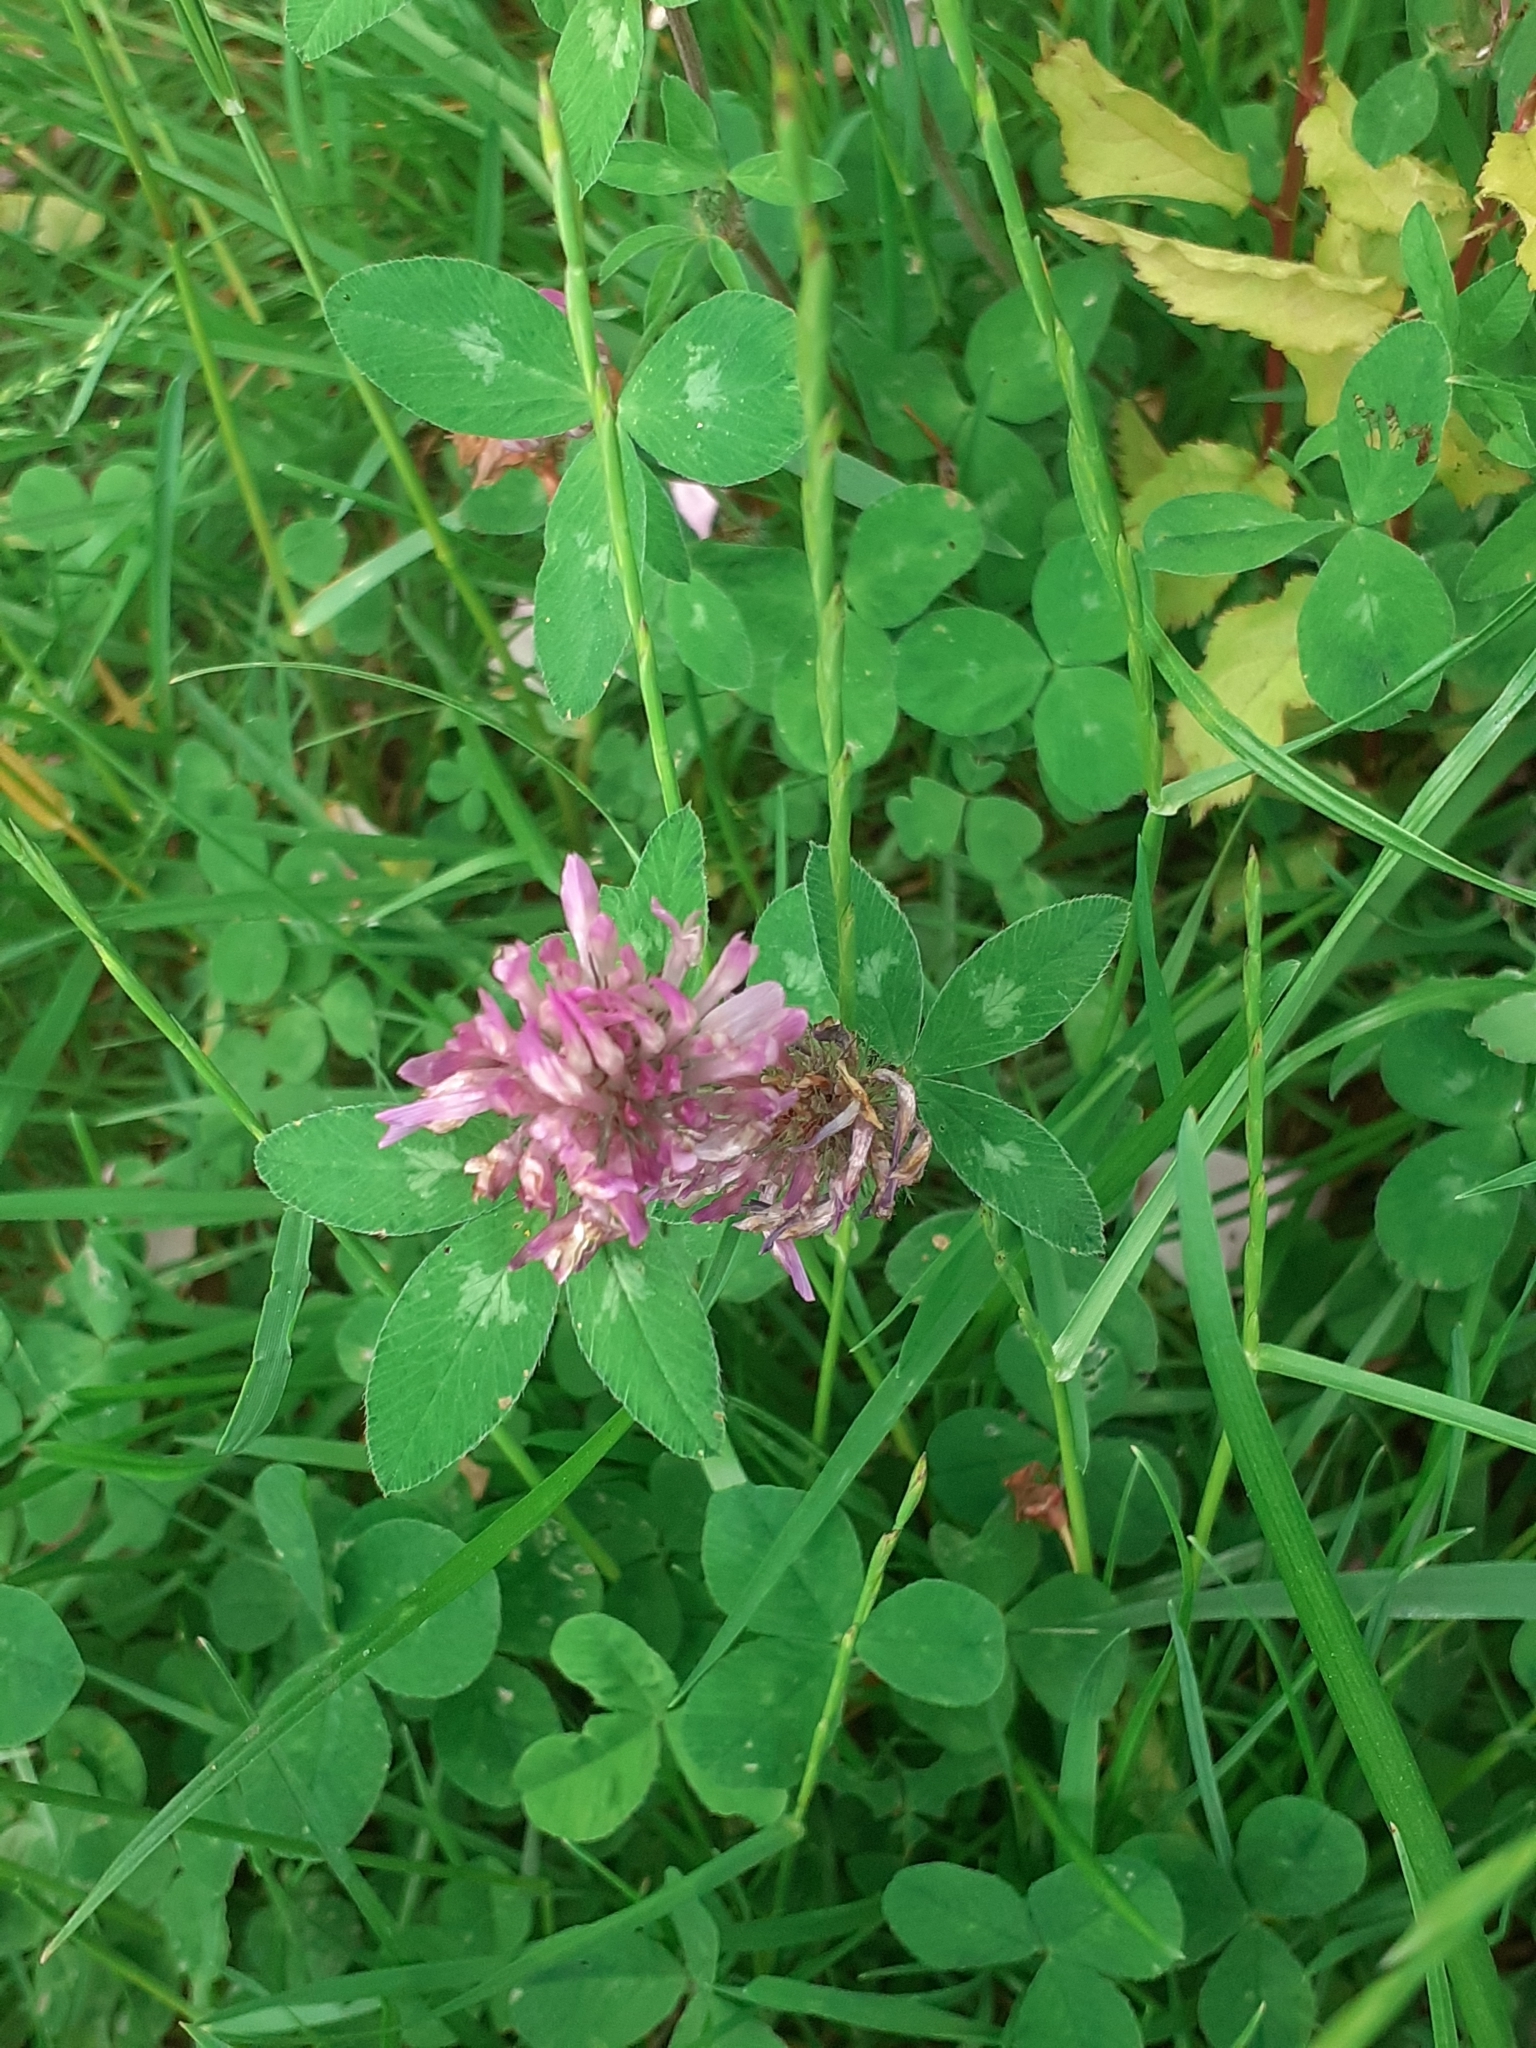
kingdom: Plantae
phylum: Tracheophyta
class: Magnoliopsida
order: Fabales
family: Fabaceae
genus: Trifolium
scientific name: Trifolium pratense
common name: Red clover
